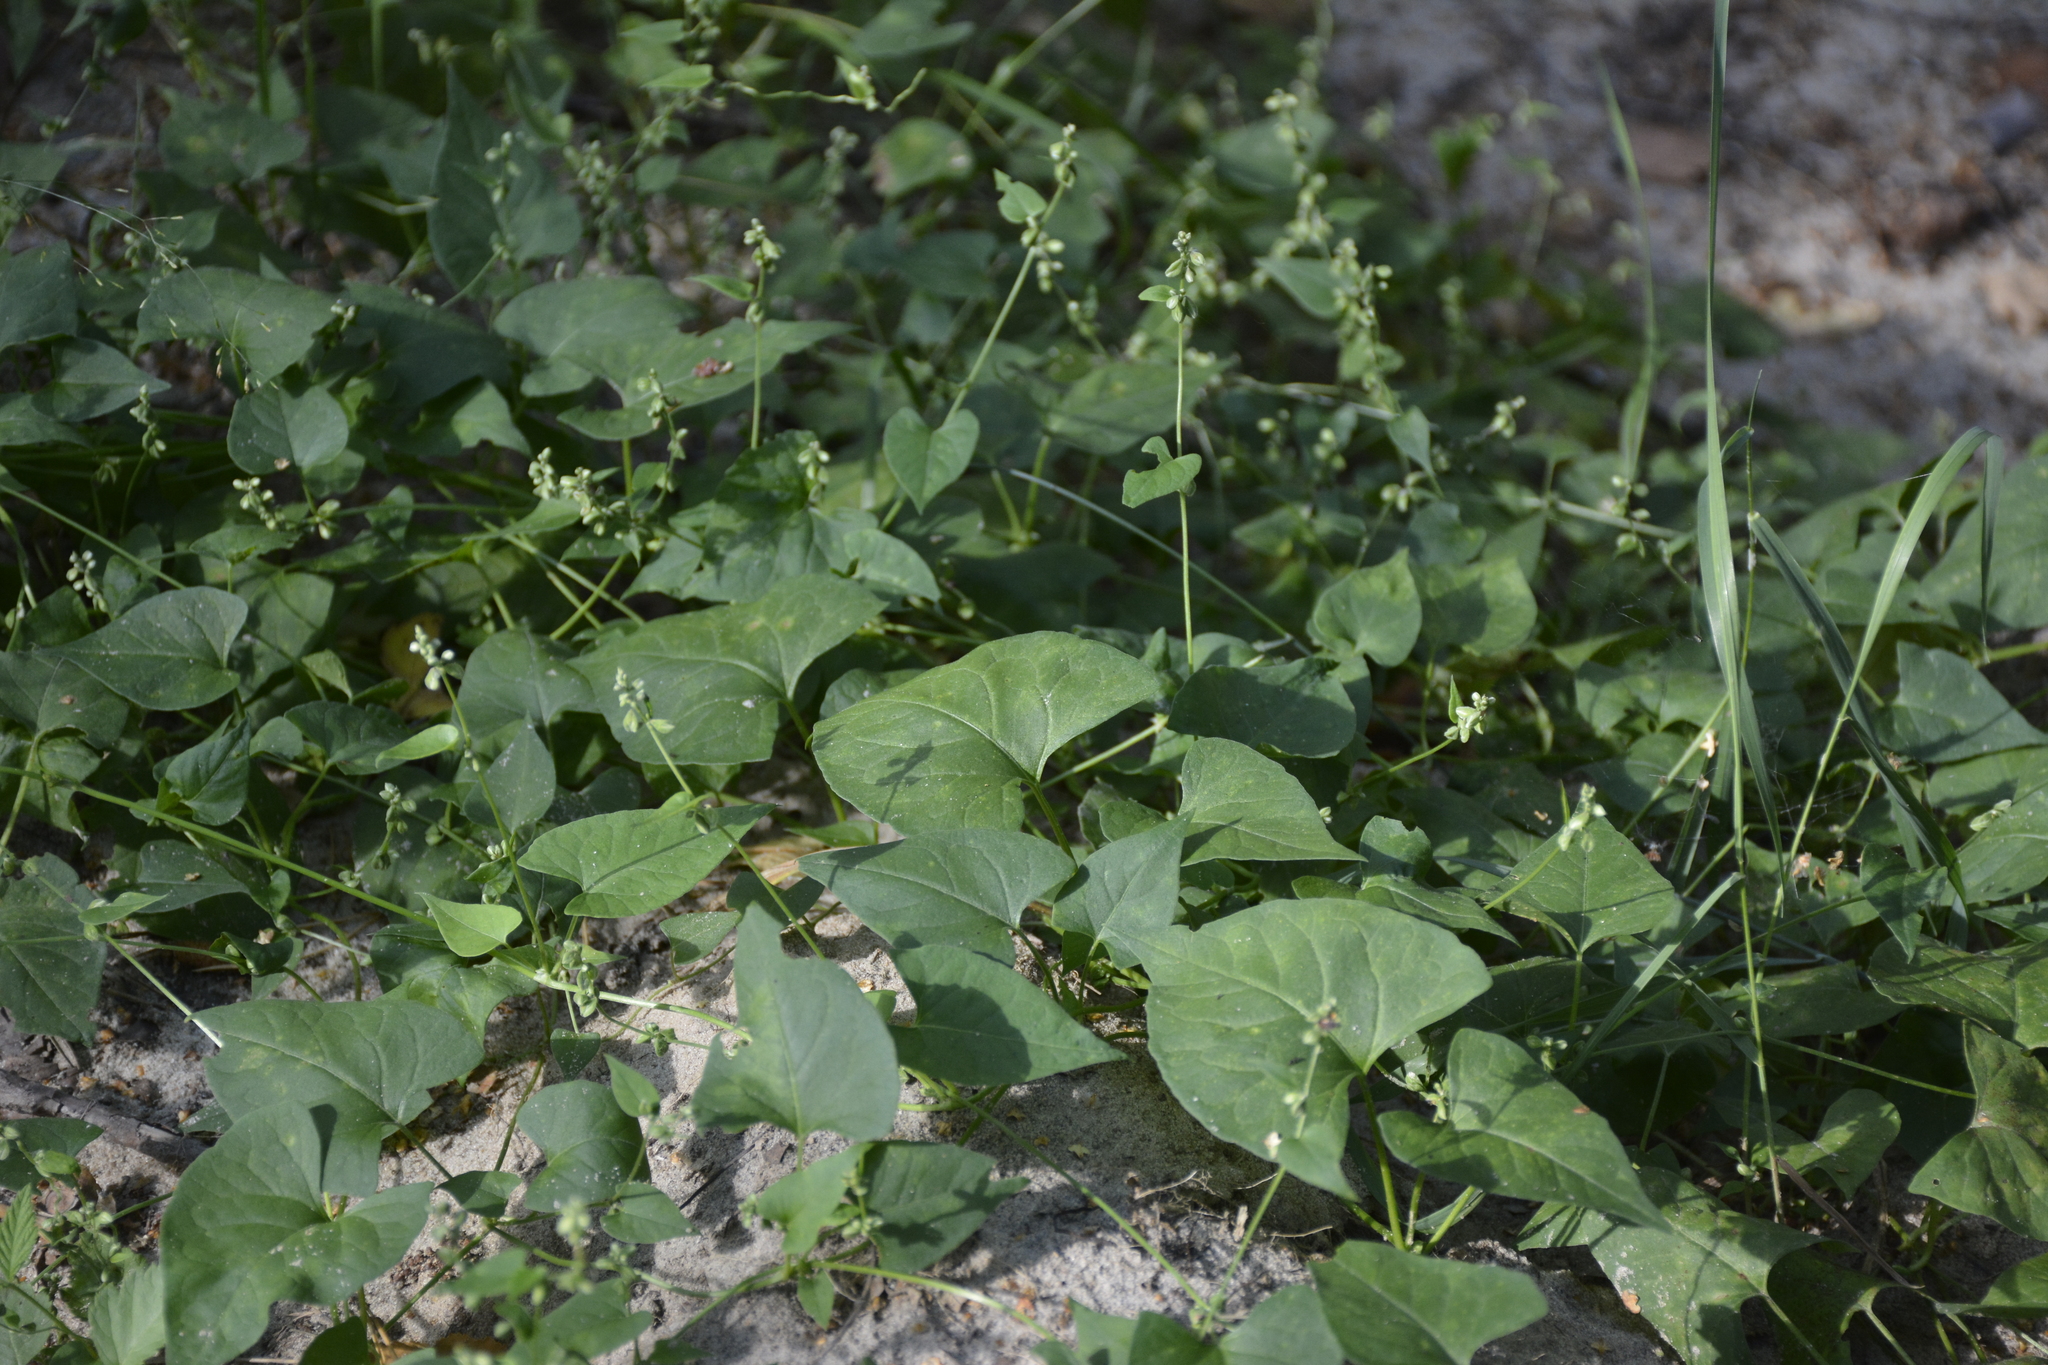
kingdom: Plantae
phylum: Tracheophyta
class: Magnoliopsida
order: Caryophyllales
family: Polygonaceae
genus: Fallopia
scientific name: Fallopia dumetorum
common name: Copse-bindweed
